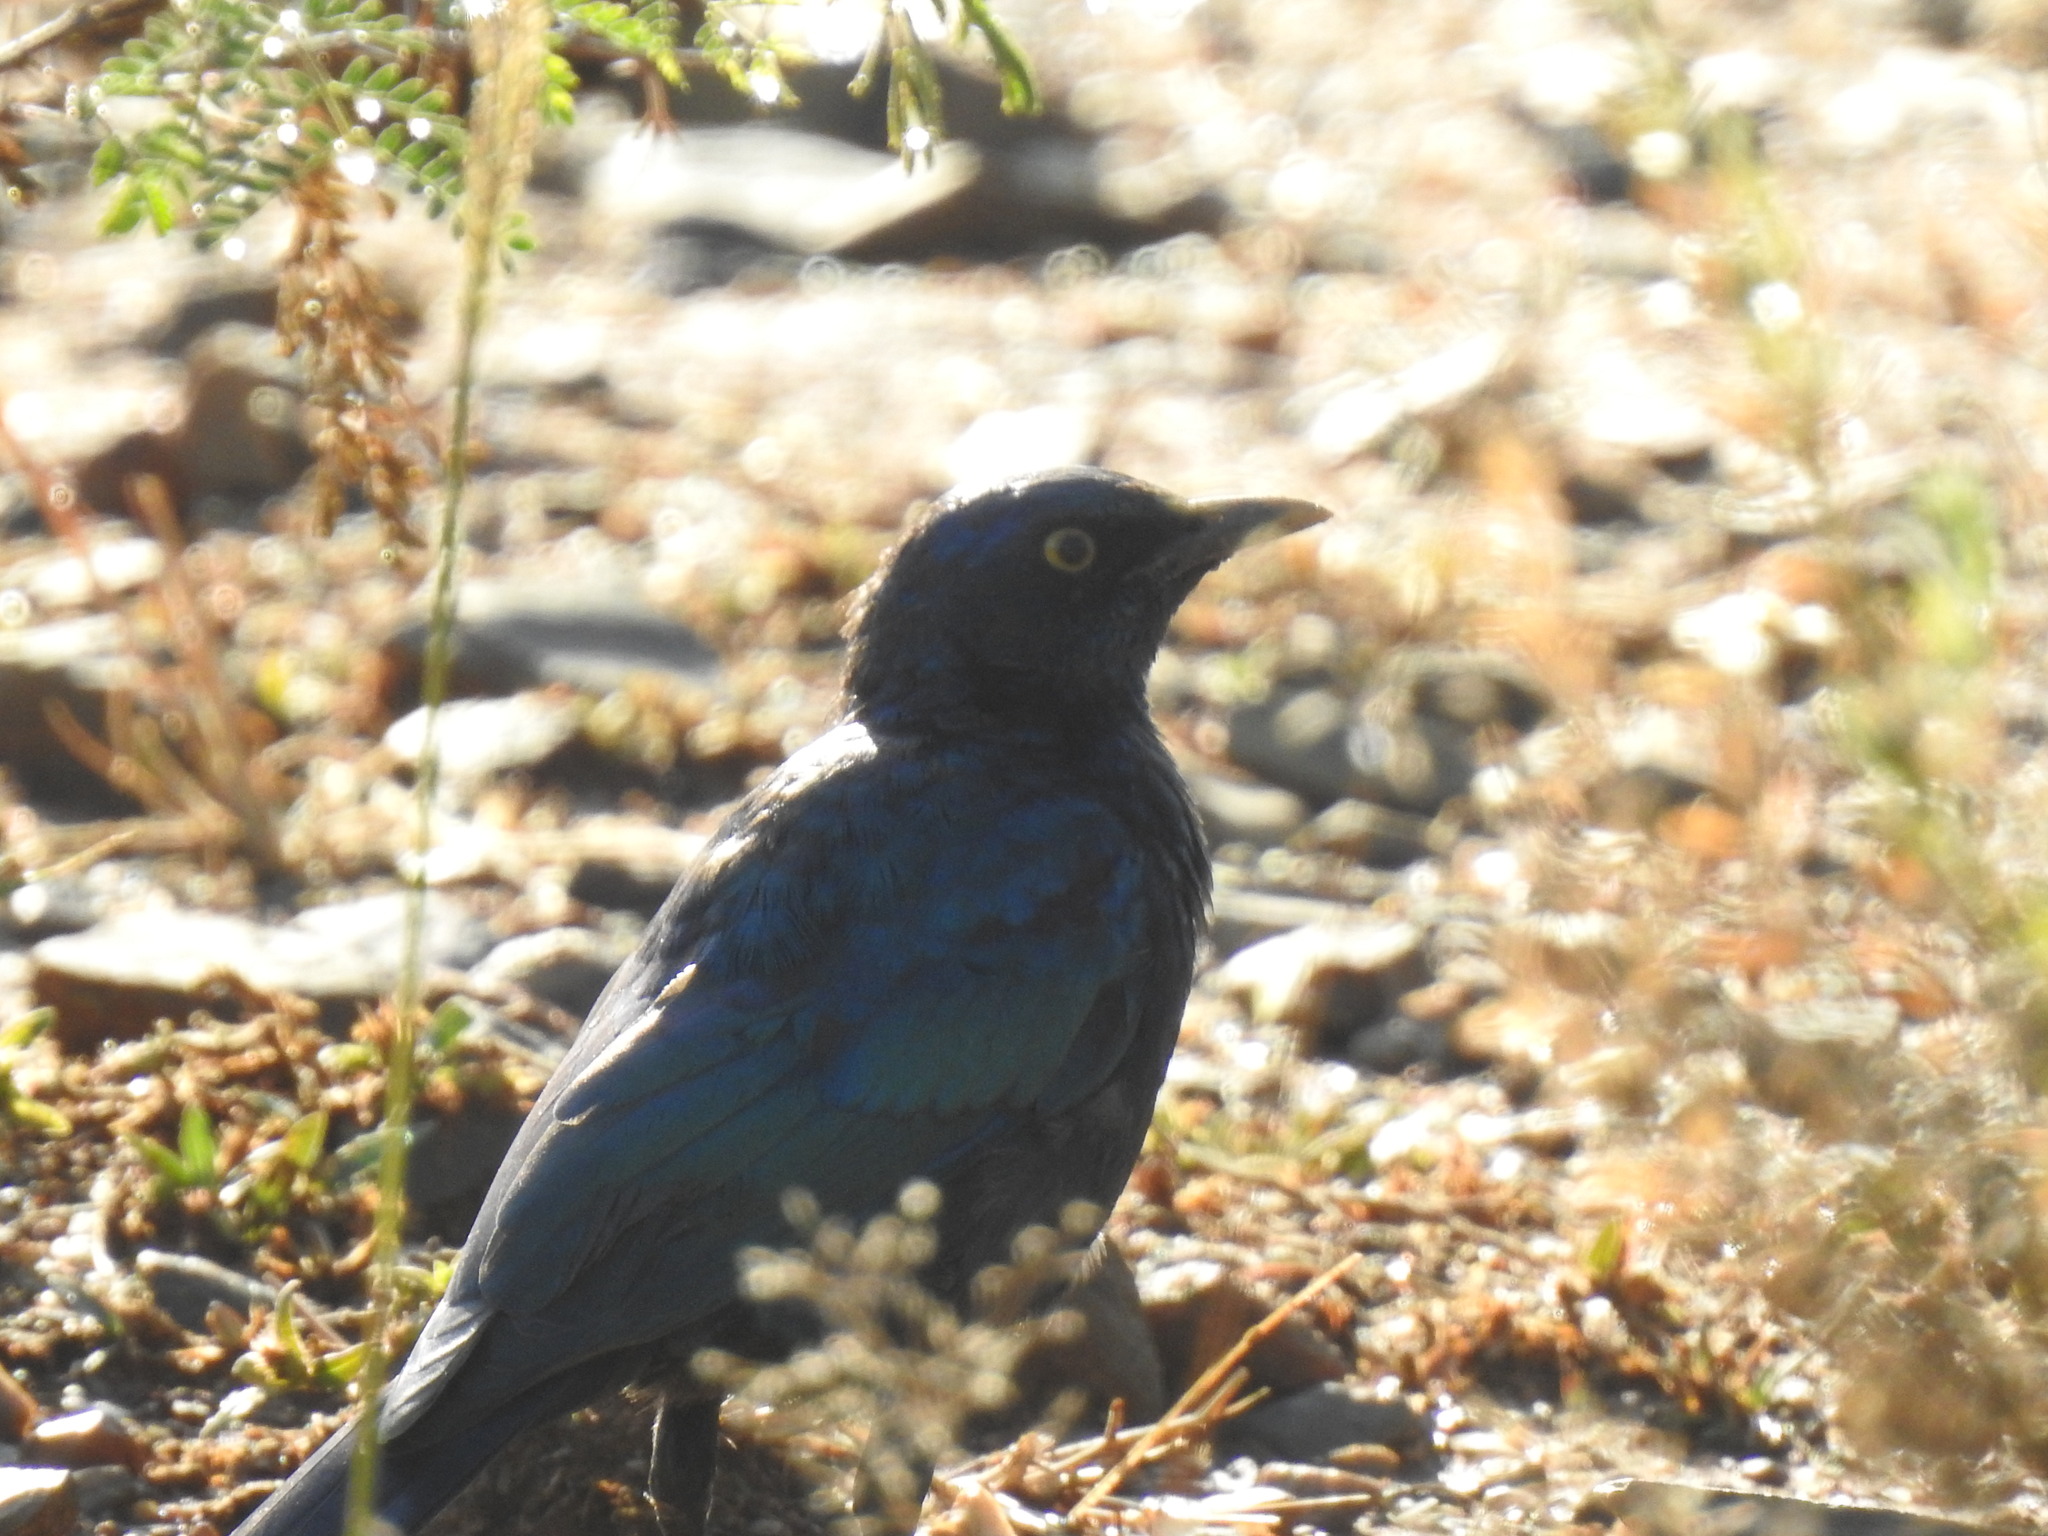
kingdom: Animalia
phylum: Chordata
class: Aves
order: Passeriformes
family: Sturnidae
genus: Lamprotornis
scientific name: Lamprotornis nitens
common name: Cape starling
